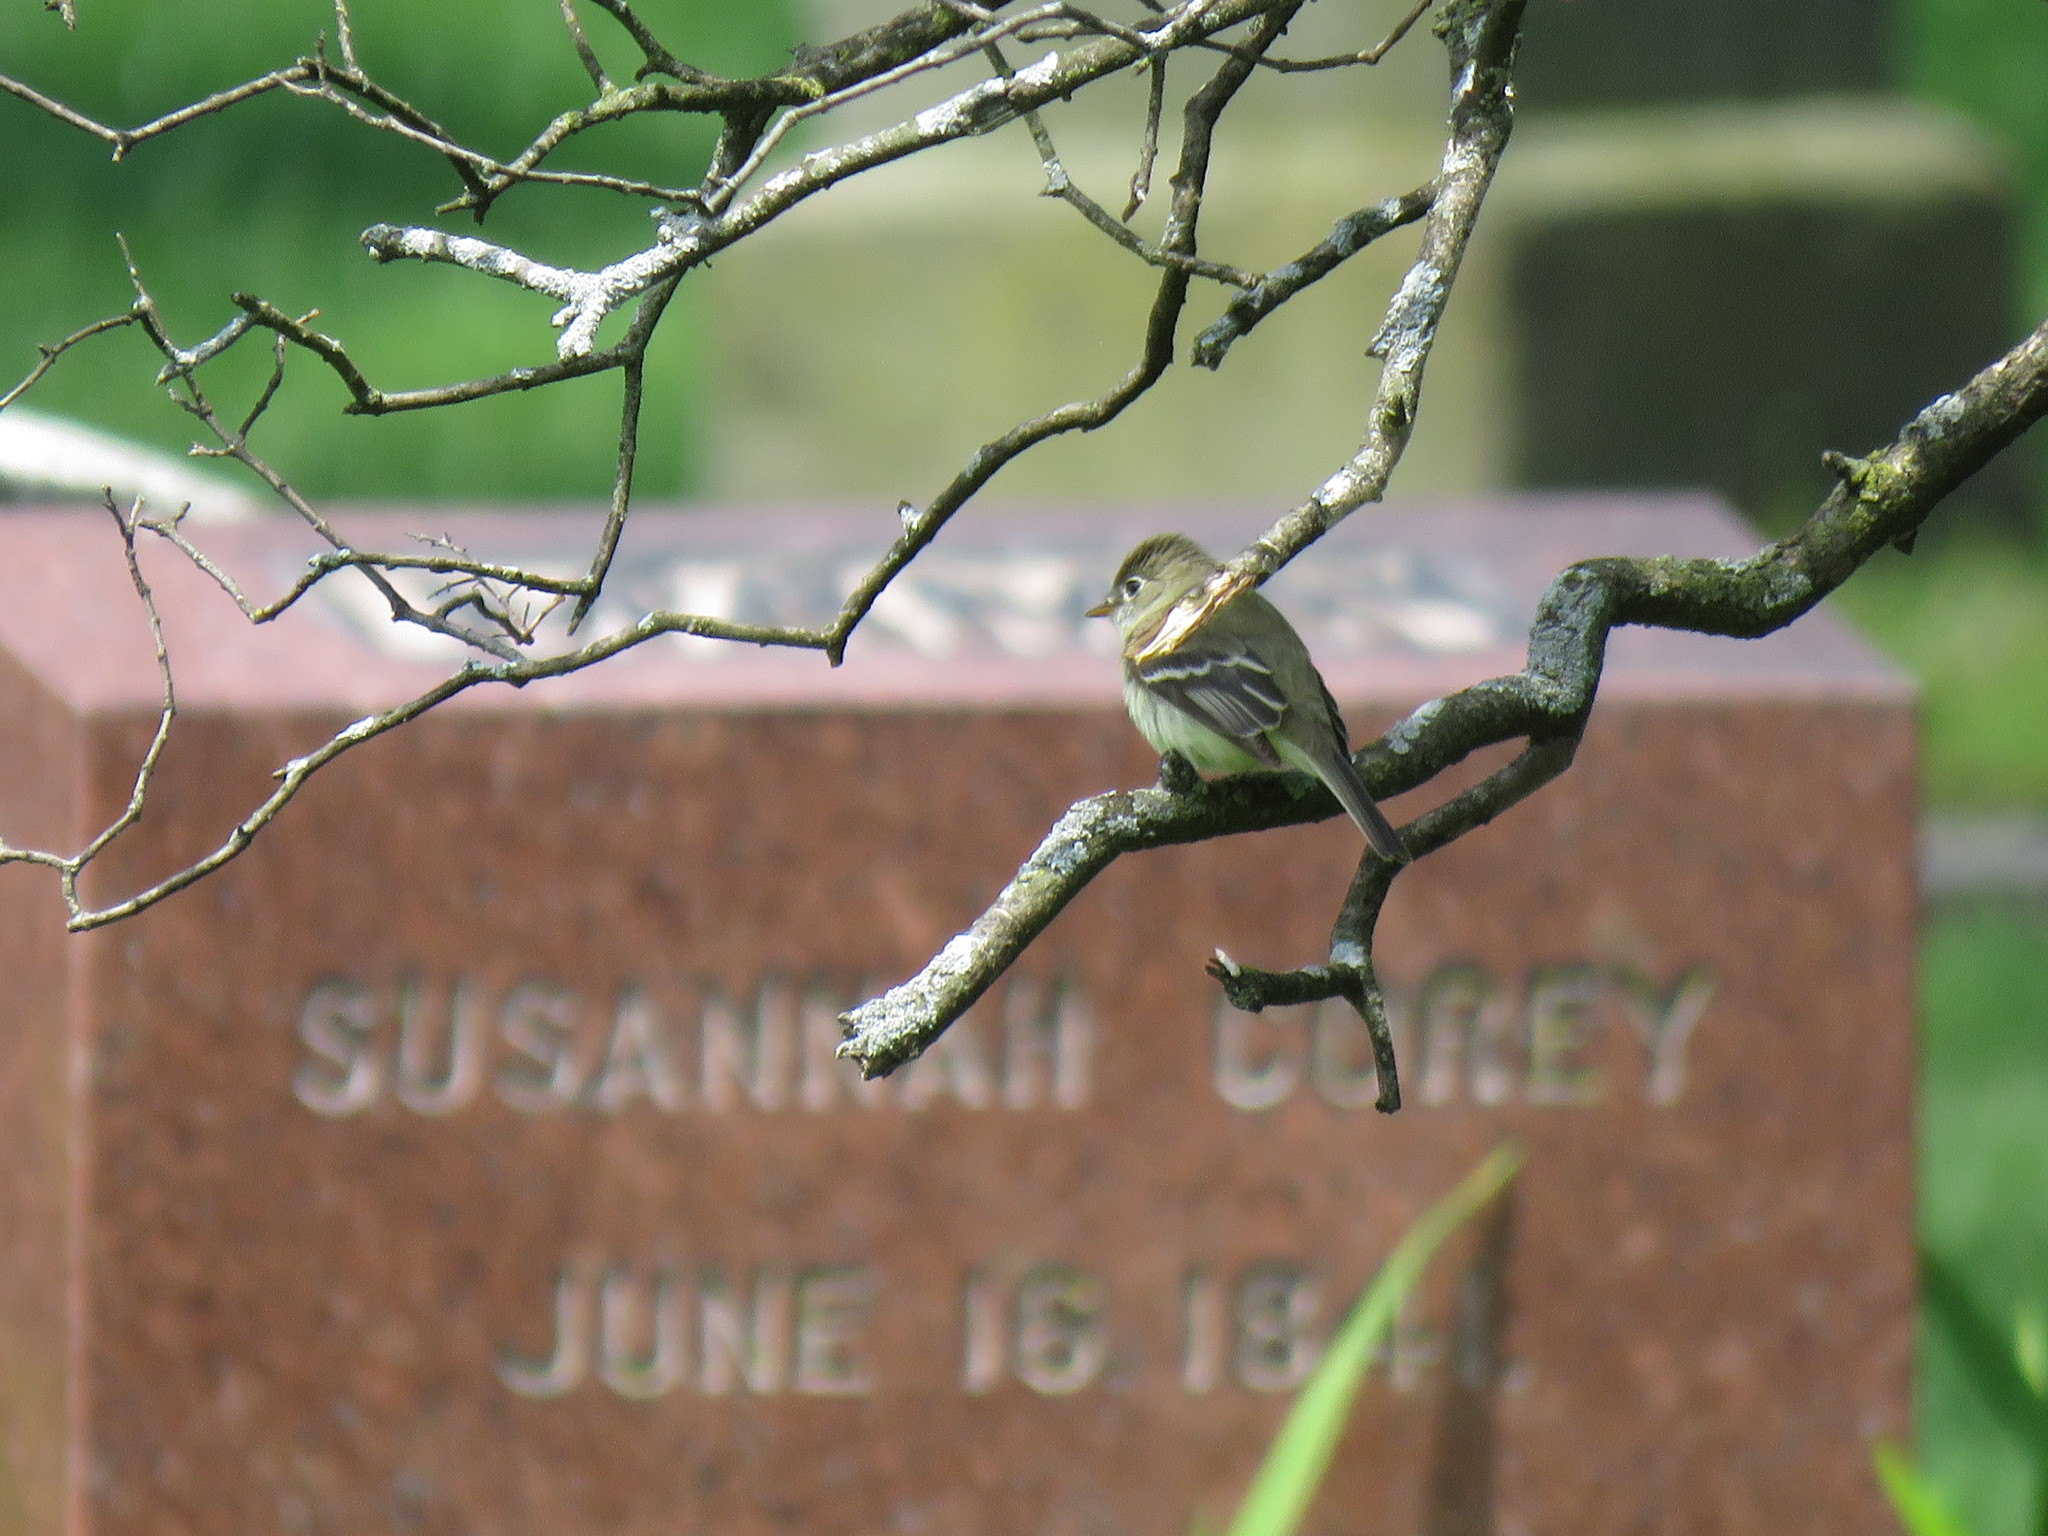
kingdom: Animalia
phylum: Chordata
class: Aves
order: Passeriformes
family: Tyrannidae
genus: Empidonax
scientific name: Empidonax minimus
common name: Least flycatcher
